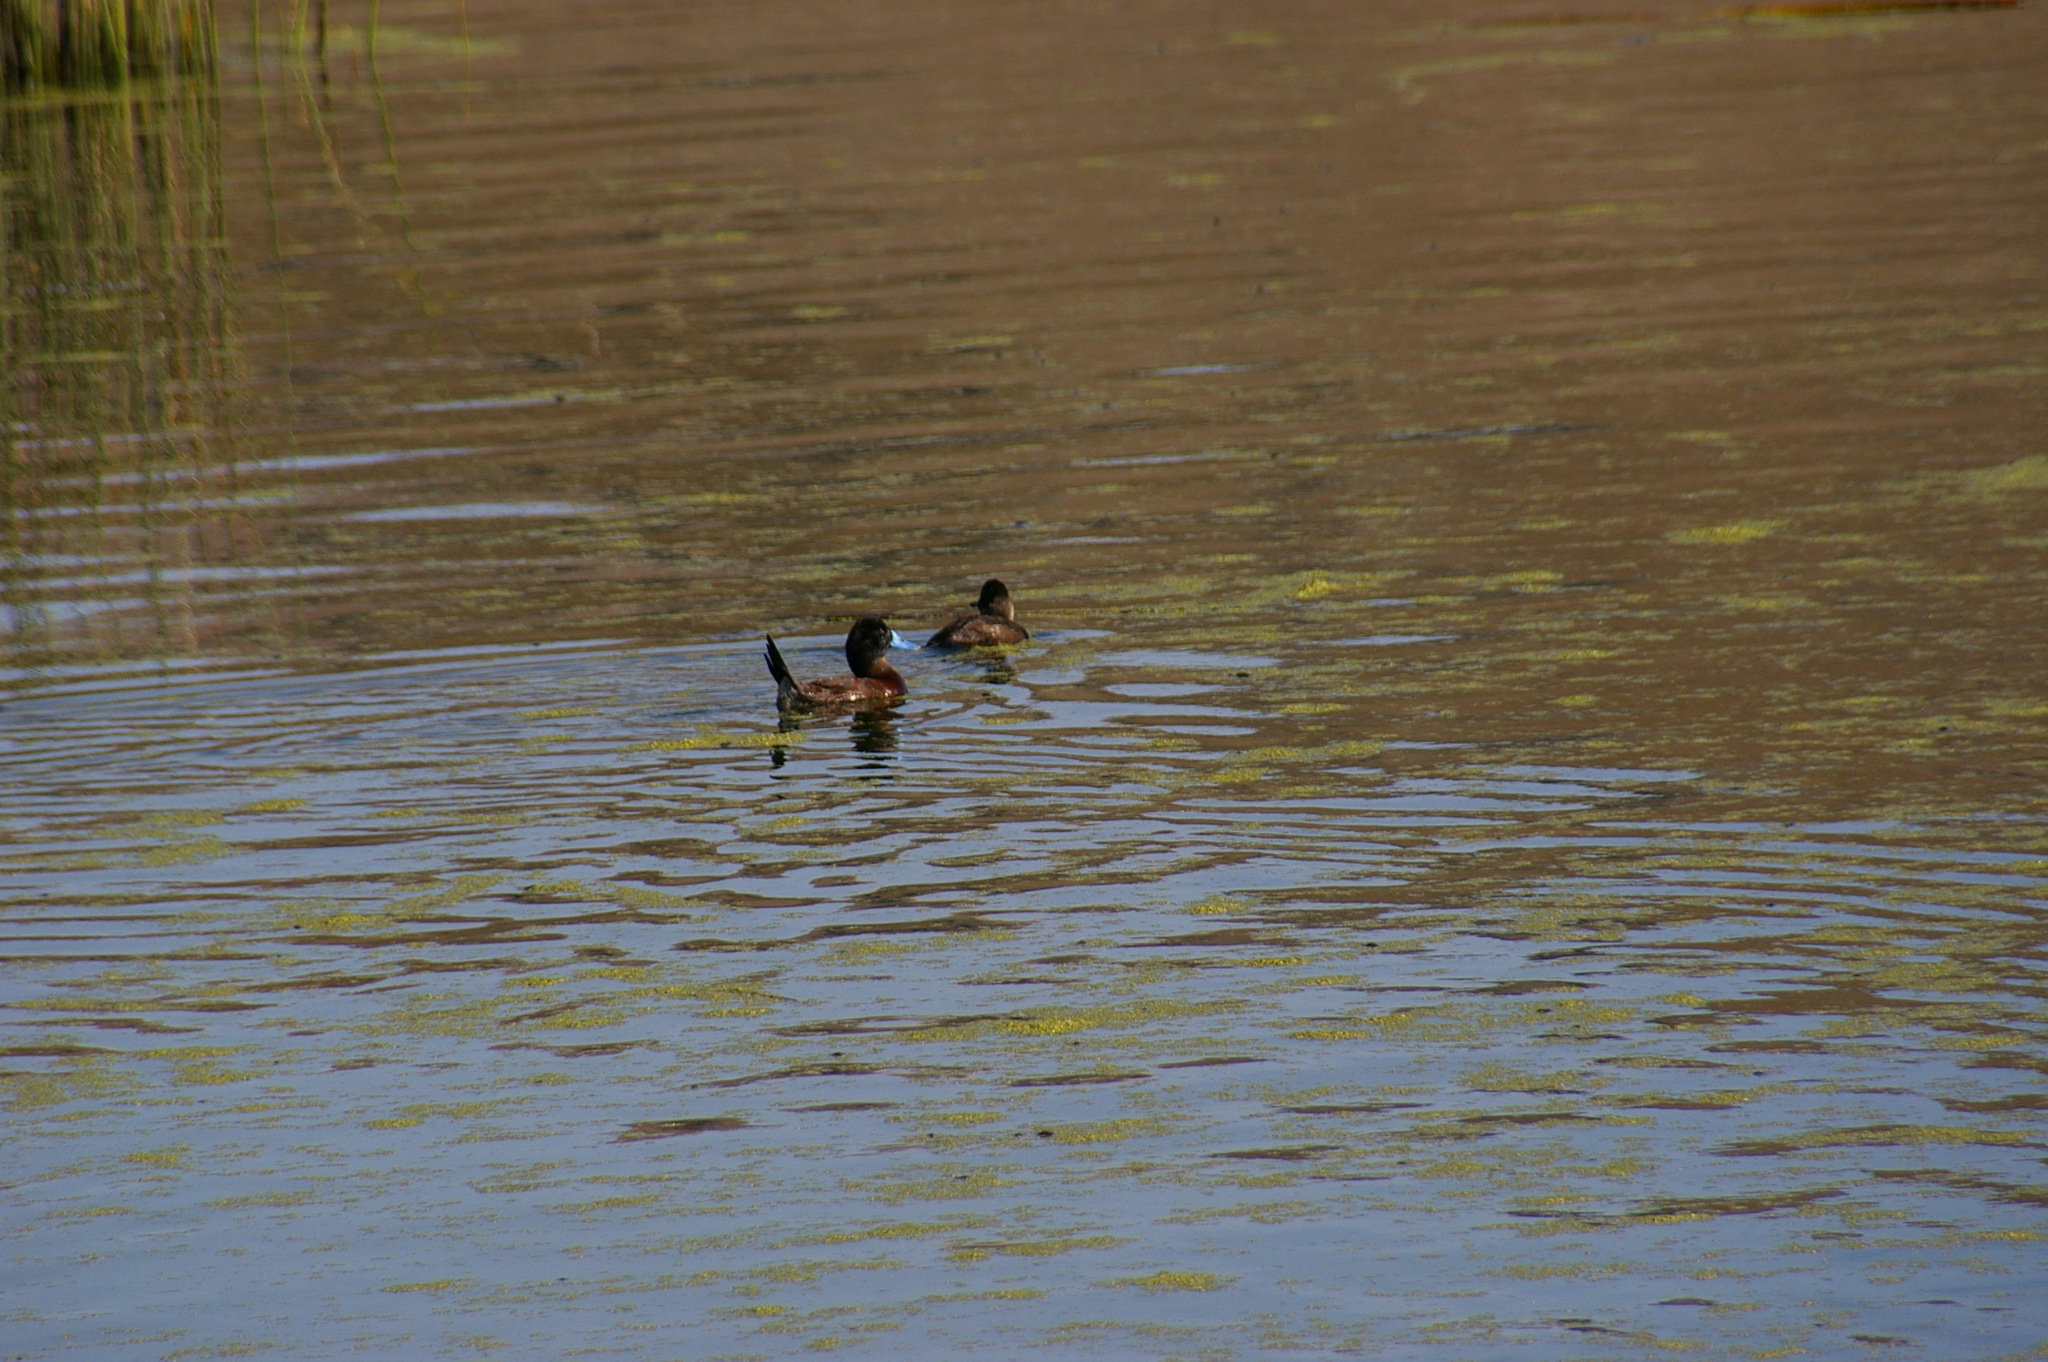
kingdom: Animalia
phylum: Chordata
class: Aves
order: Anseriformes
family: Anatidae
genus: Oxyura
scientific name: Oxyura ferruginea
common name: Andean duck
